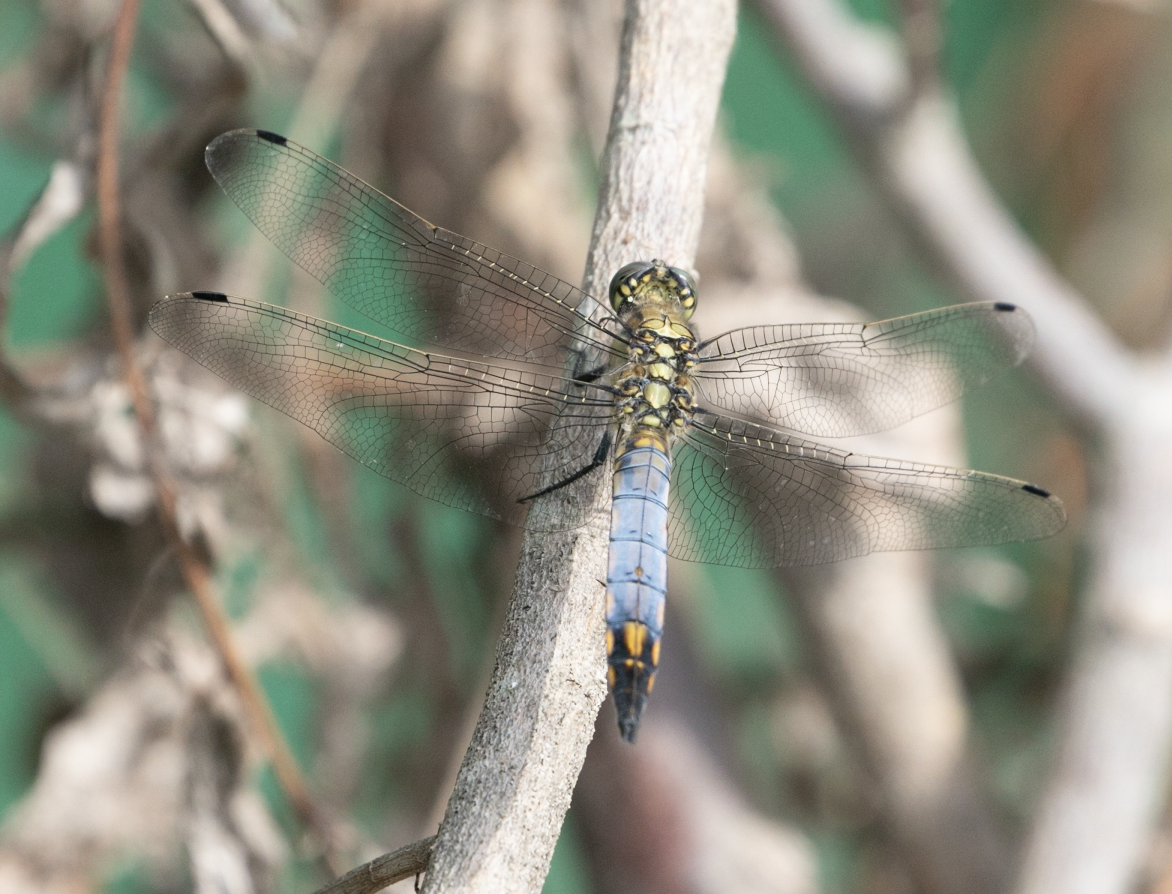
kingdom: Animalia
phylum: Arthropoda
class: Insecta
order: Odonata
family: Libellulidae
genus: Orthetrum
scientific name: Orthetrum cancellatum
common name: Black-tailed skimmer
